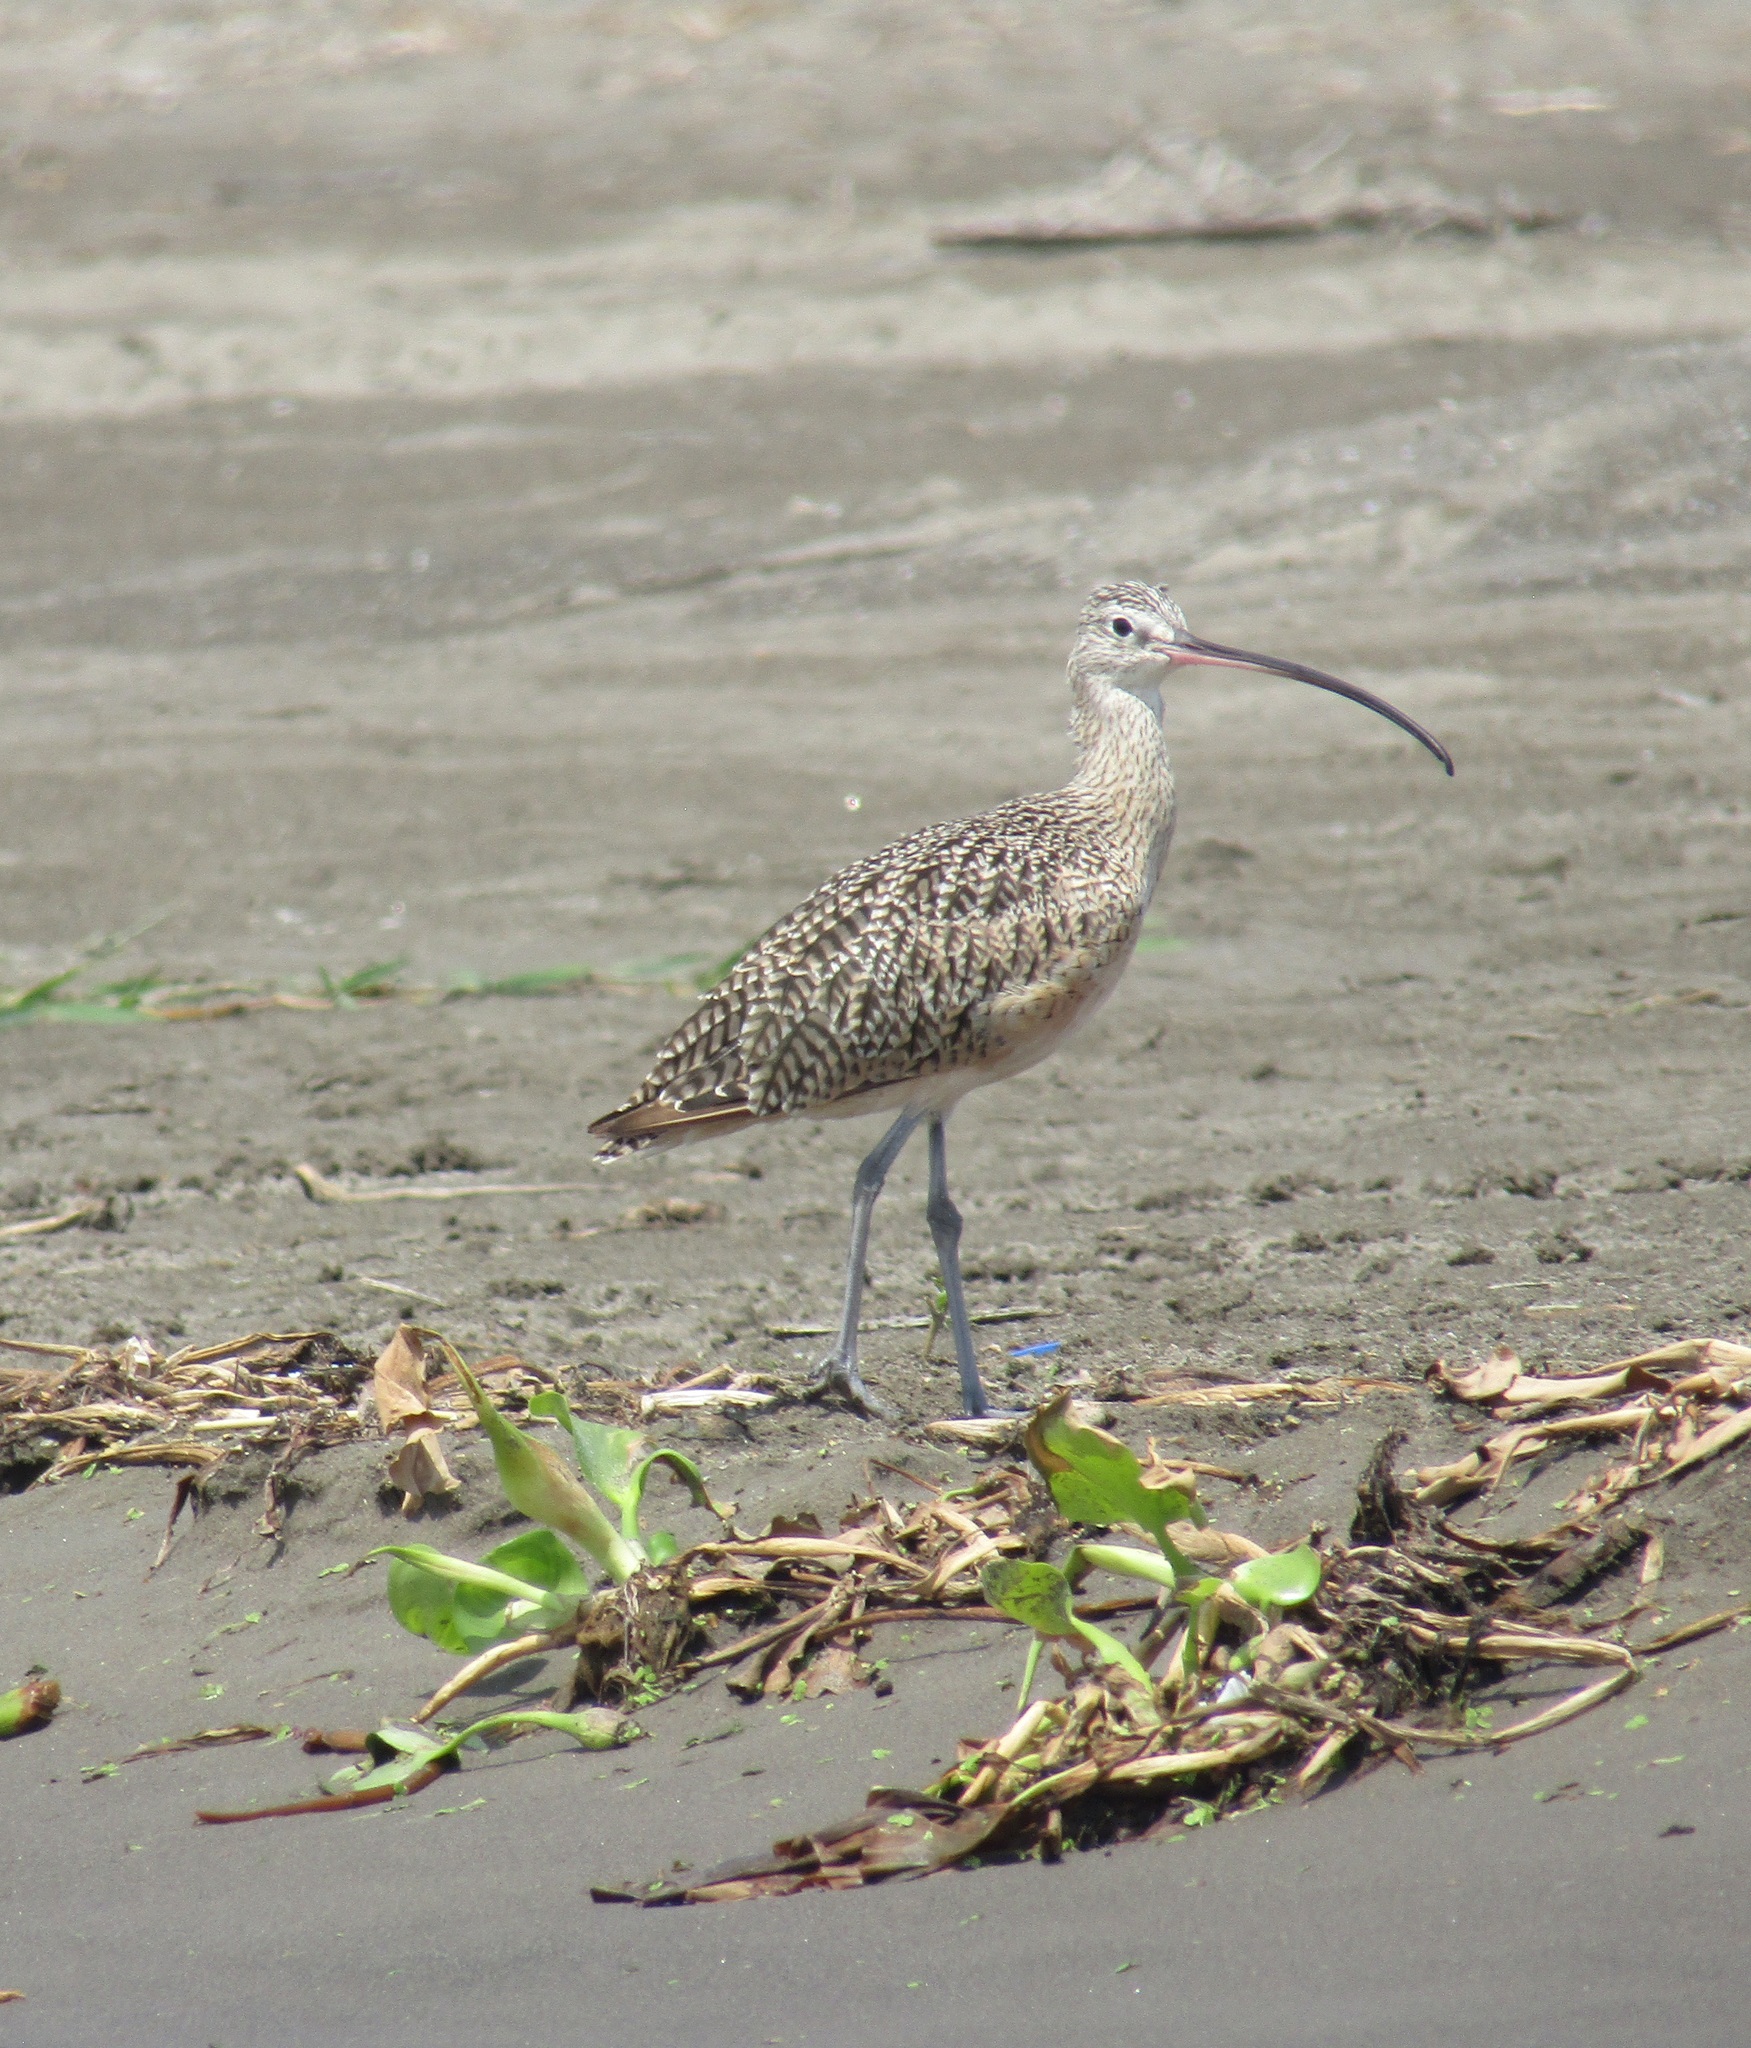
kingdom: Animalia
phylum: Chordata
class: Aves
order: Charadriiformes
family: Scolopacidae
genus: Numenius
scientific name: Numenius americanus
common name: Long-billed curlew
